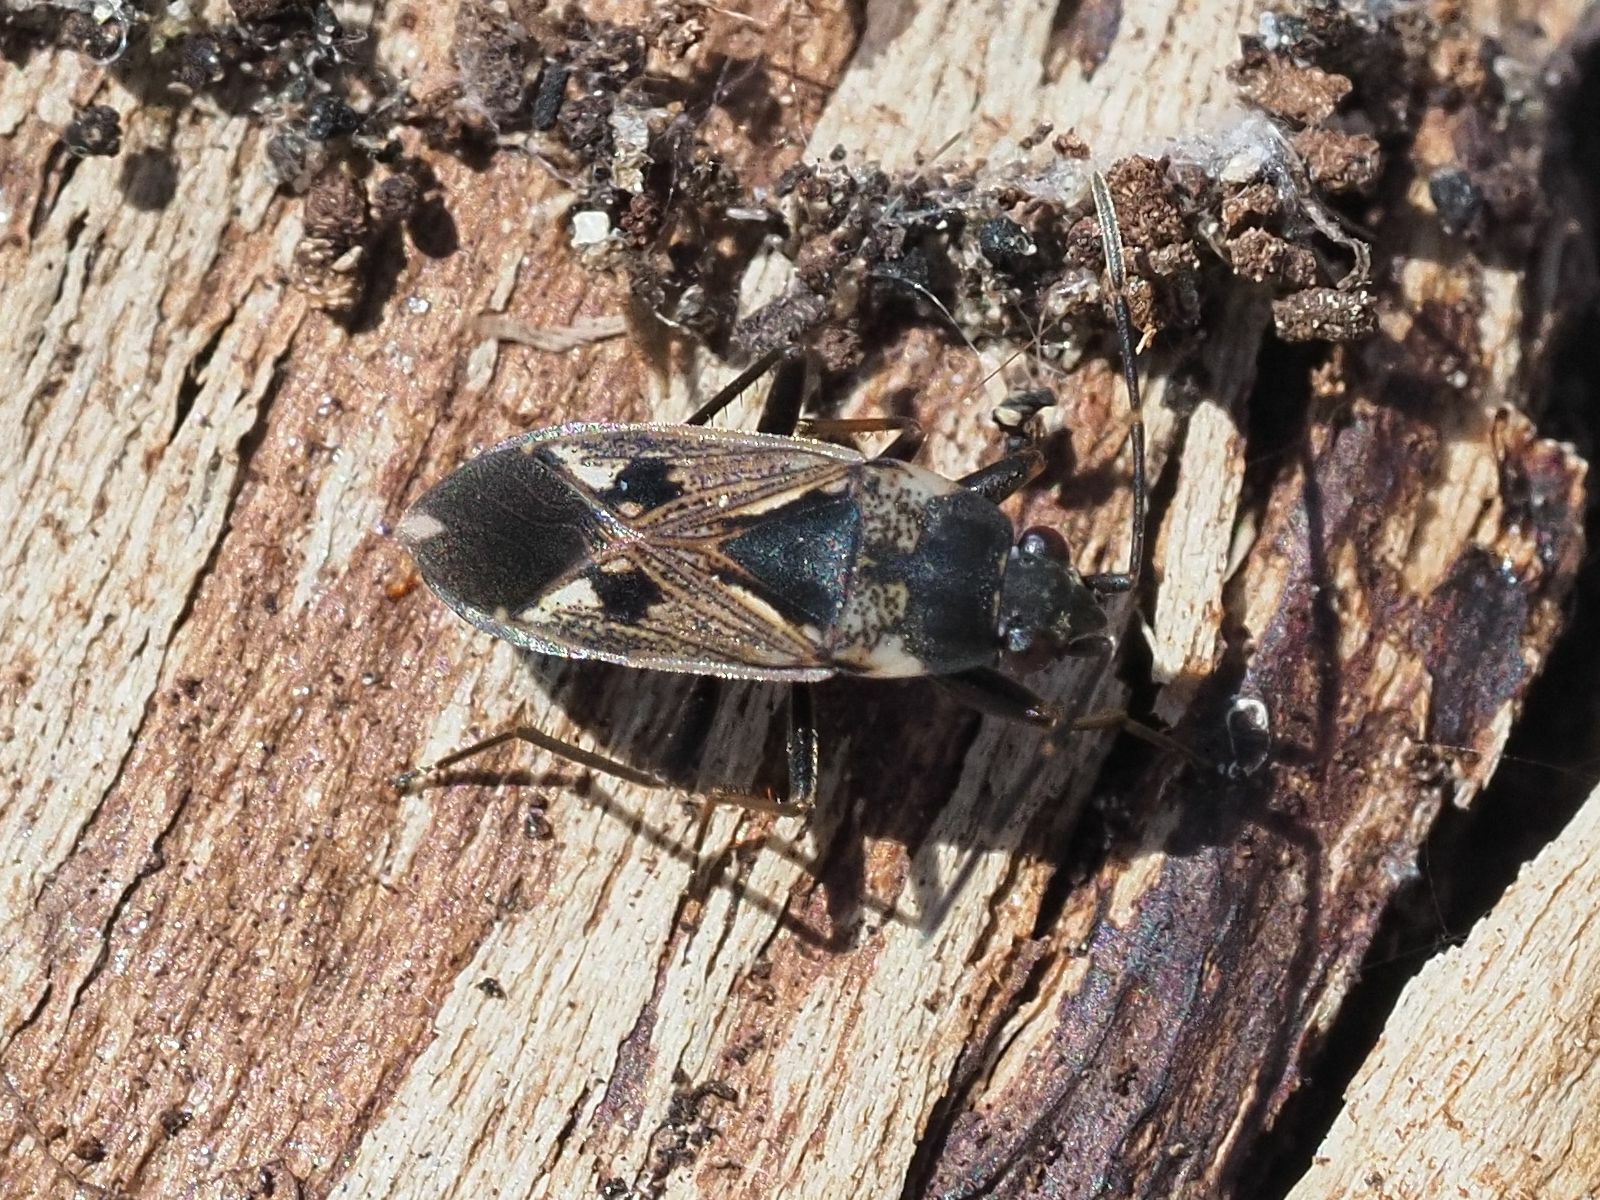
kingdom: Animalia
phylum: Arthropoda
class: Insecta
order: Hemiptera
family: Rhyparochromidae
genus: Rhyparochromus
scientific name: Rhyparochromus vulgaris
